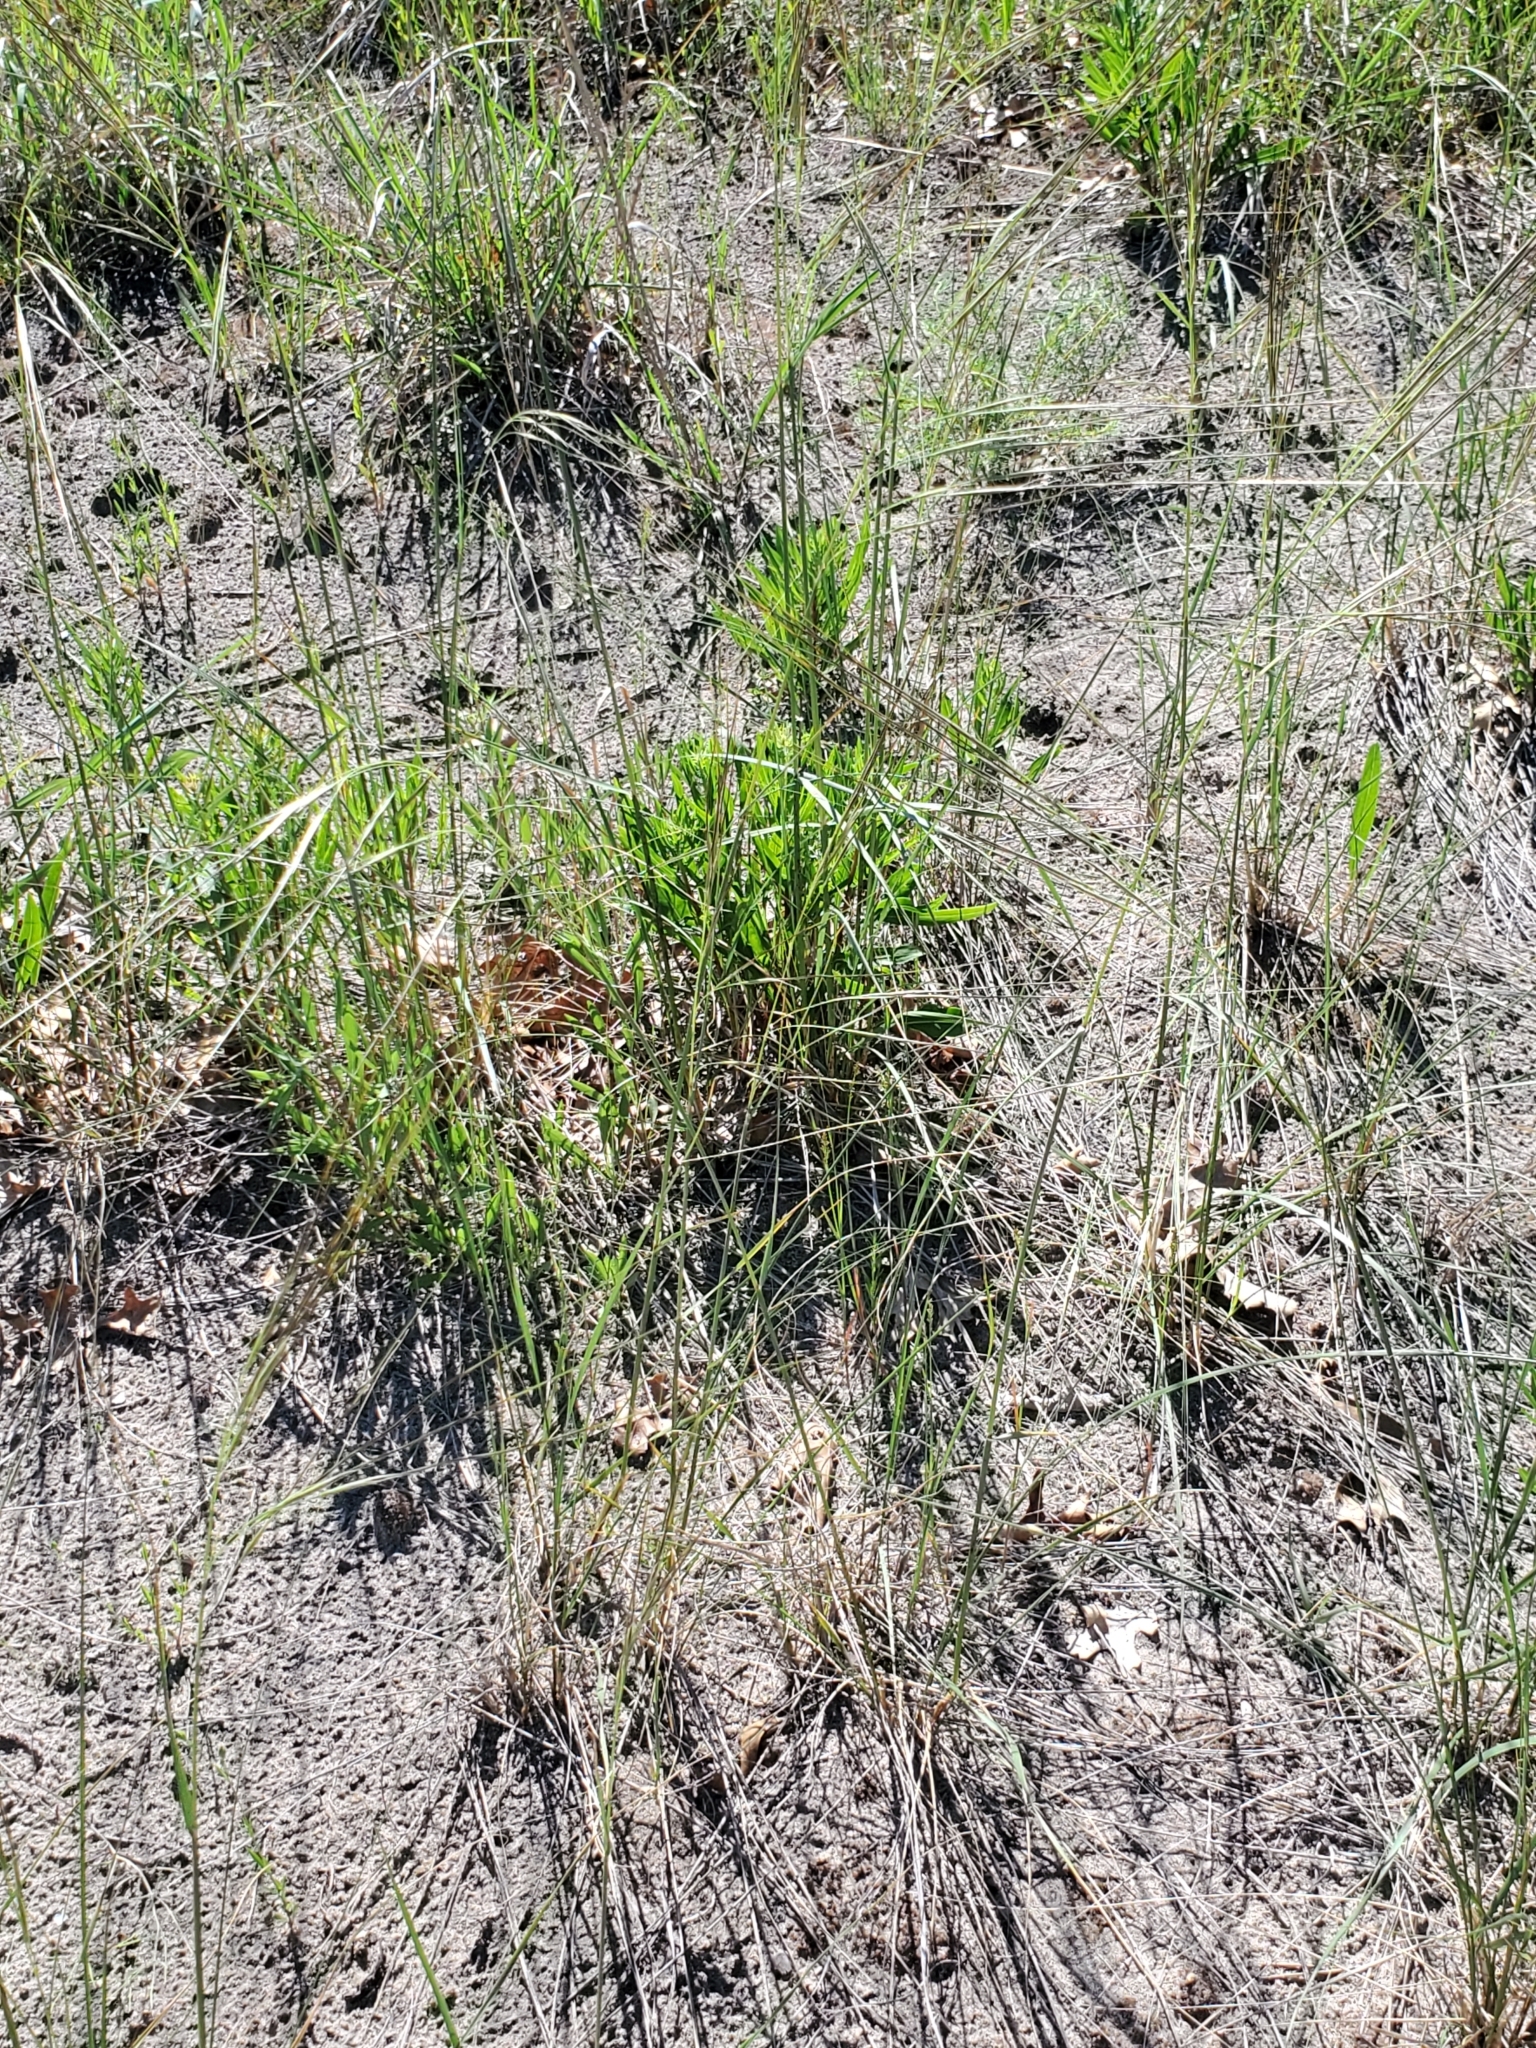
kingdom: Plantae
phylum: Tracheophyta
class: Liliopsida
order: Poales
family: Poaceae
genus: Hesperostipa
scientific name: Hesperostipa spartea
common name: Porcupine grass
